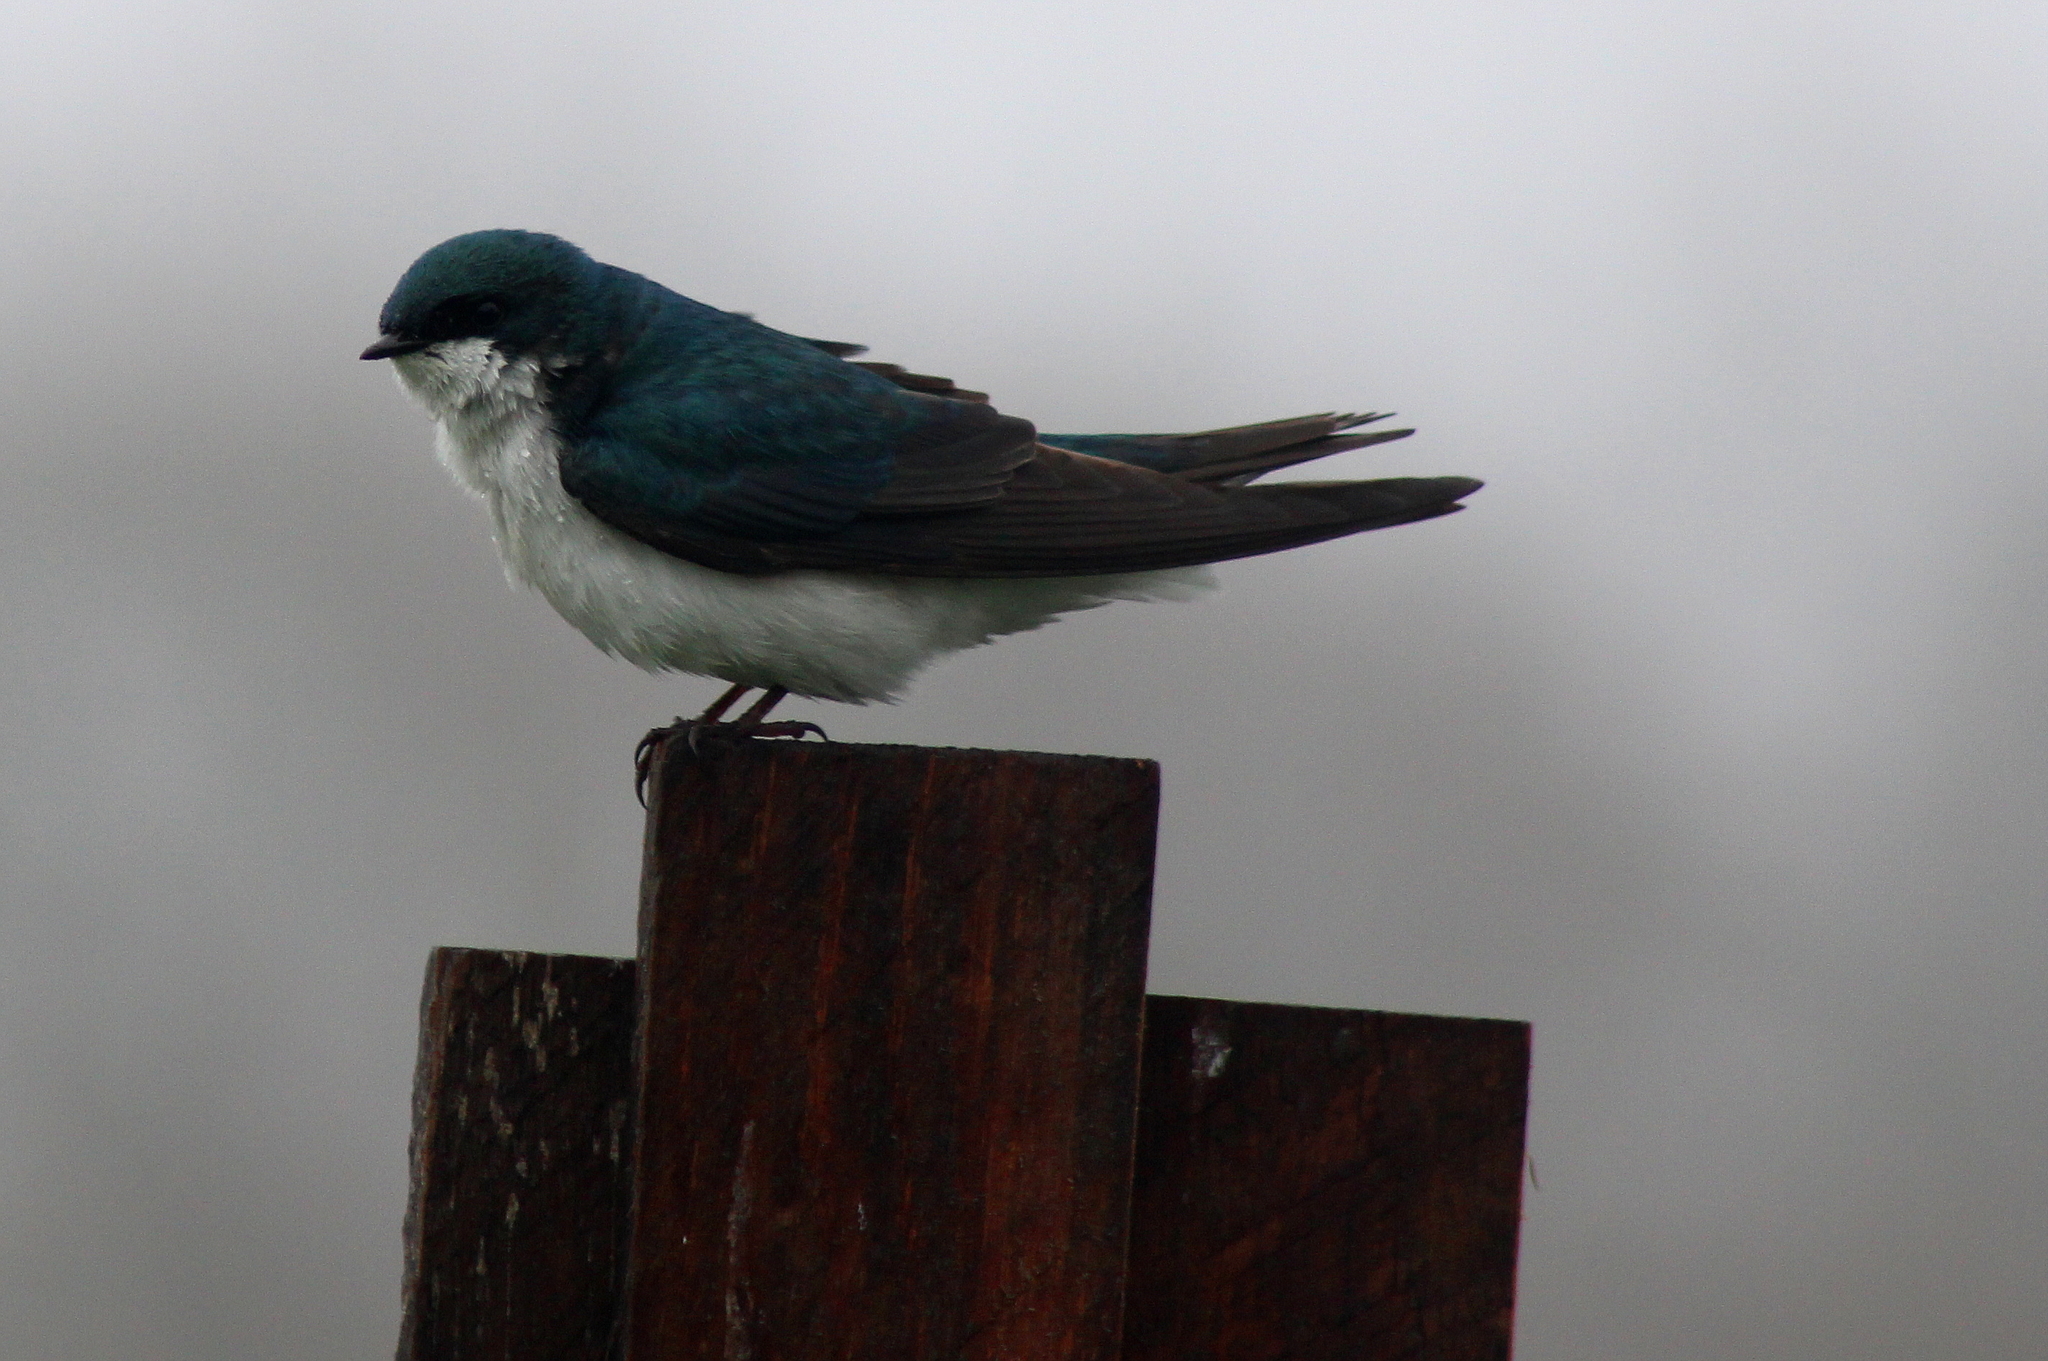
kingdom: Animalia
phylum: Chordata
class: Aves
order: Passeriformes
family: Hirundinidae
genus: Tachycineta
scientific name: Tachycineta bicolor
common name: Tree swallow
